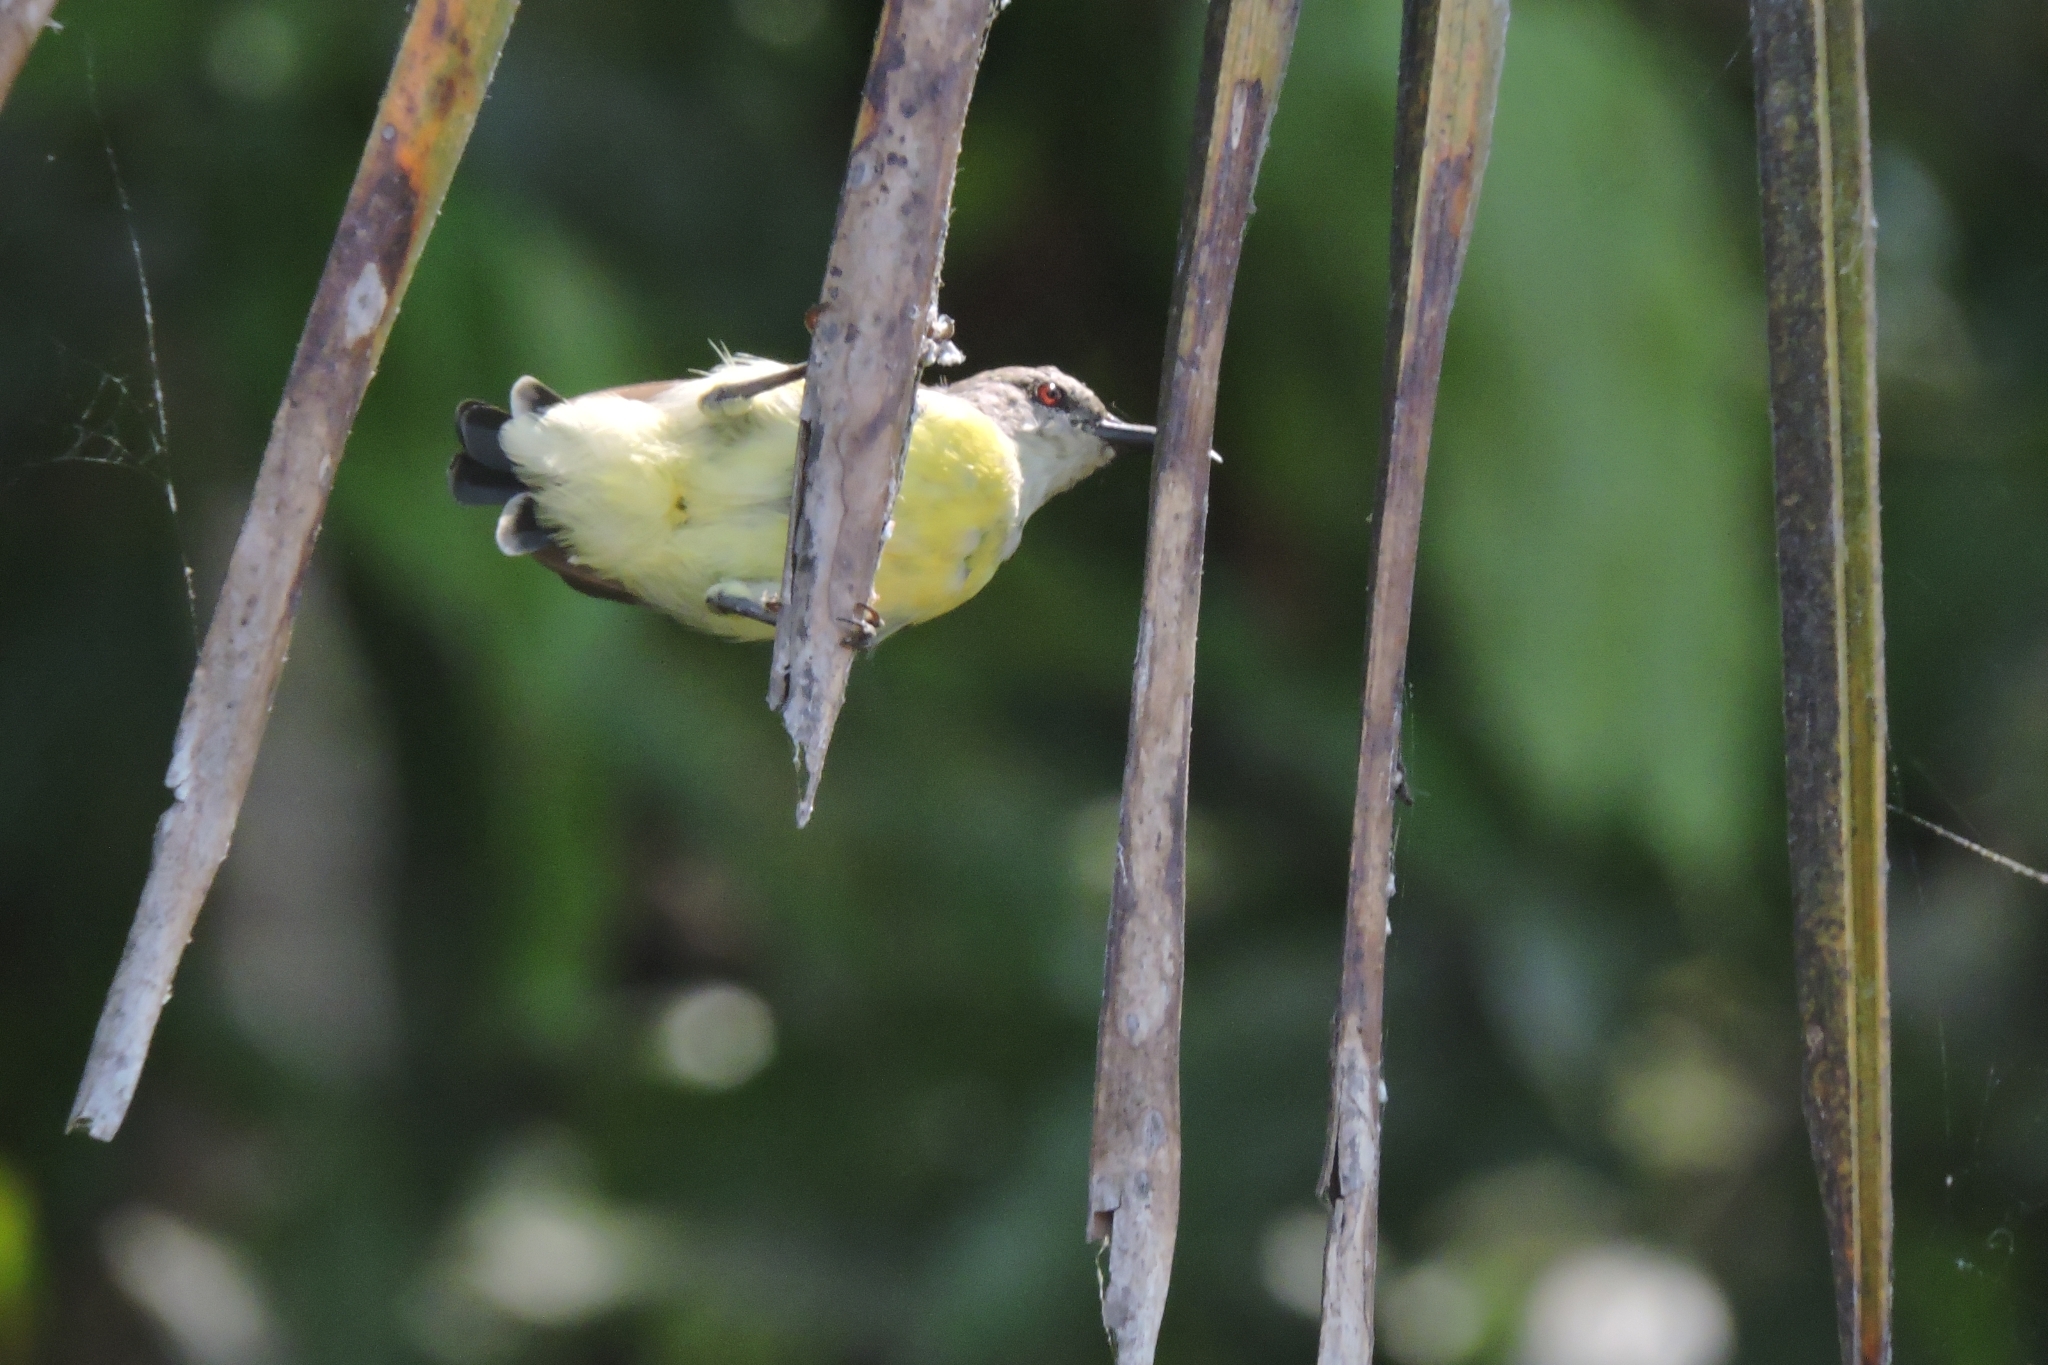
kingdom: Animalia
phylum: Chordata
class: Aves
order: Passeriformes
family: Nectariniidae
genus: Leptocoma
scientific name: Leptocoma zeylonica
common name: Purple-rumped sunbird
